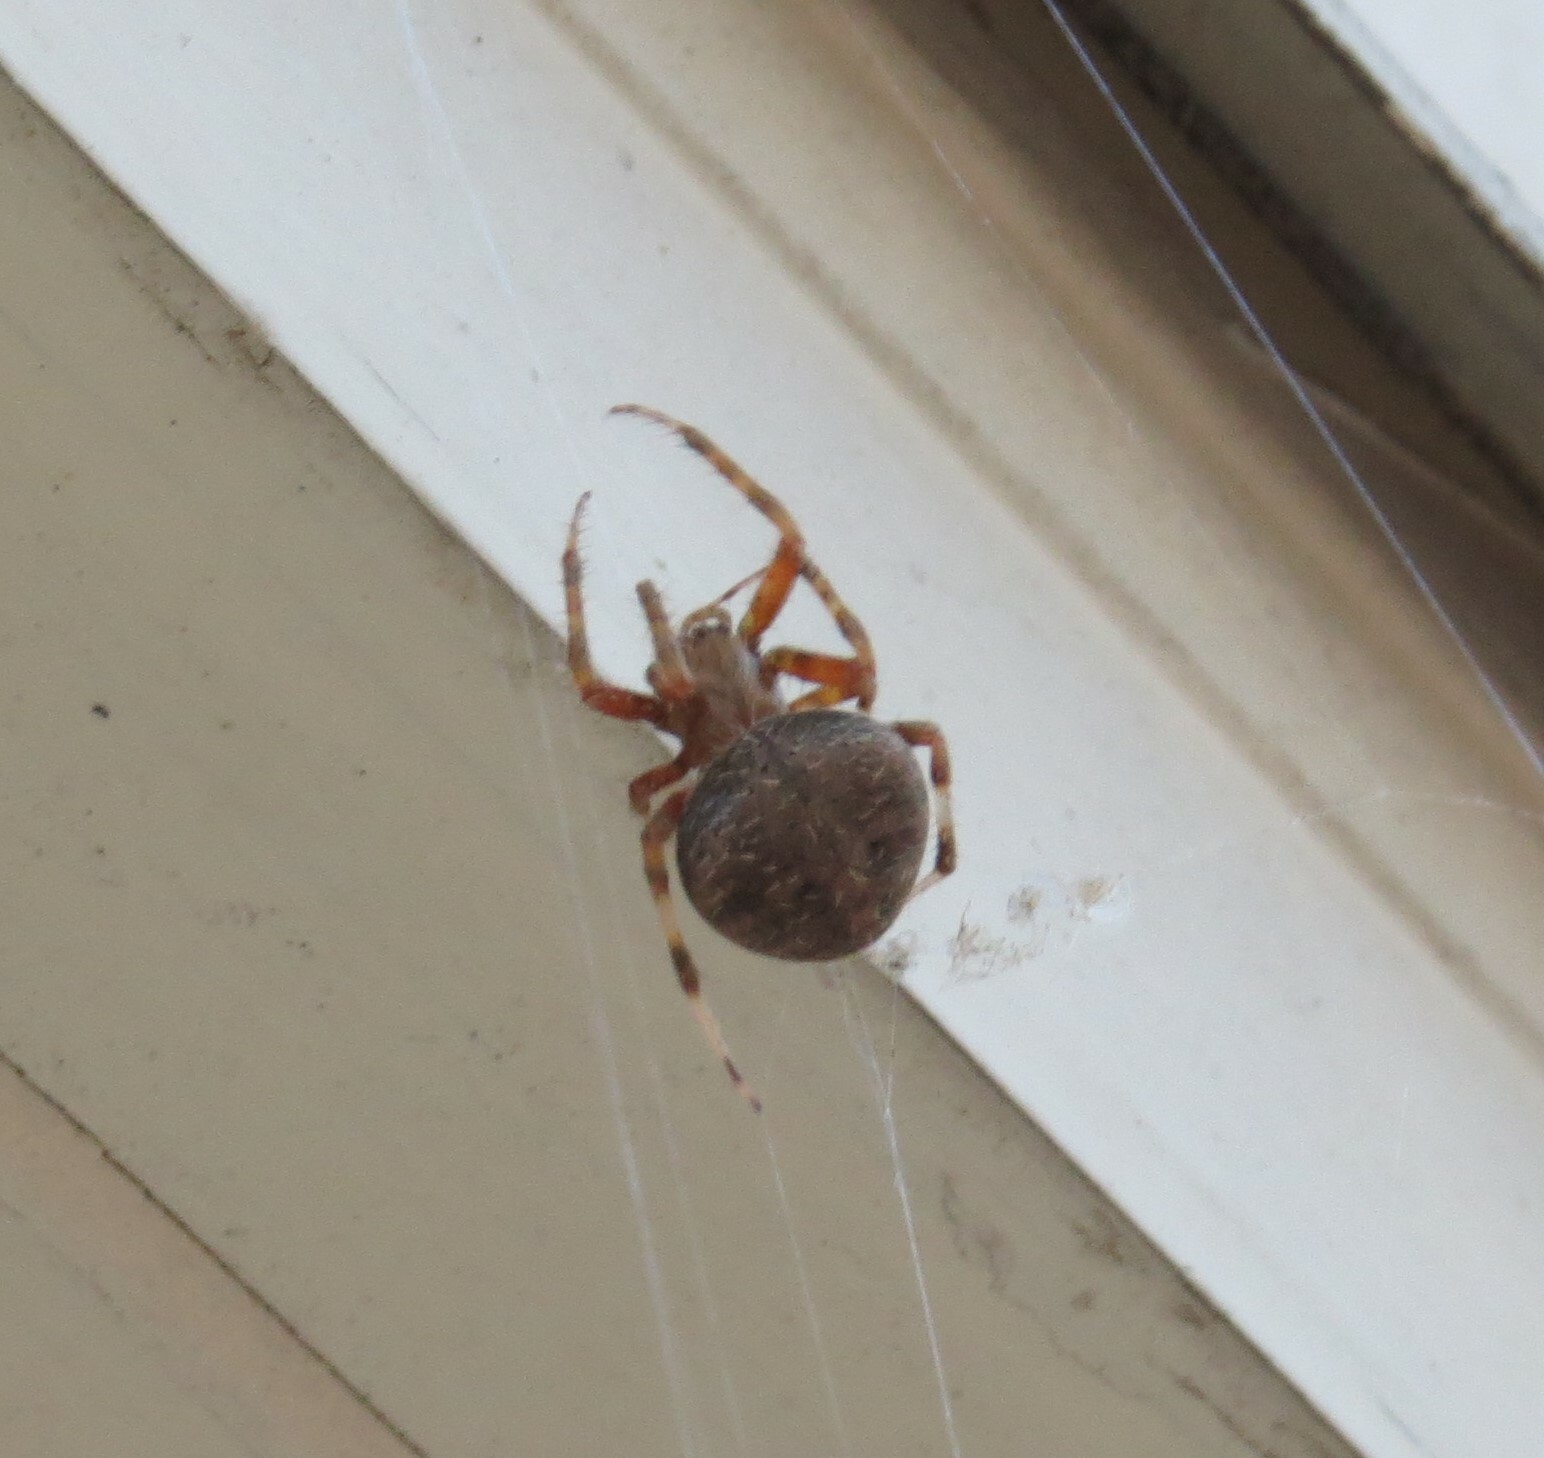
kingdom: Animalia
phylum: Arthropoda
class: Arachnida
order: Araneae
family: Araneidae
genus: Neoscona
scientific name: Neoscona crucifera
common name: Spotted orbweaver
